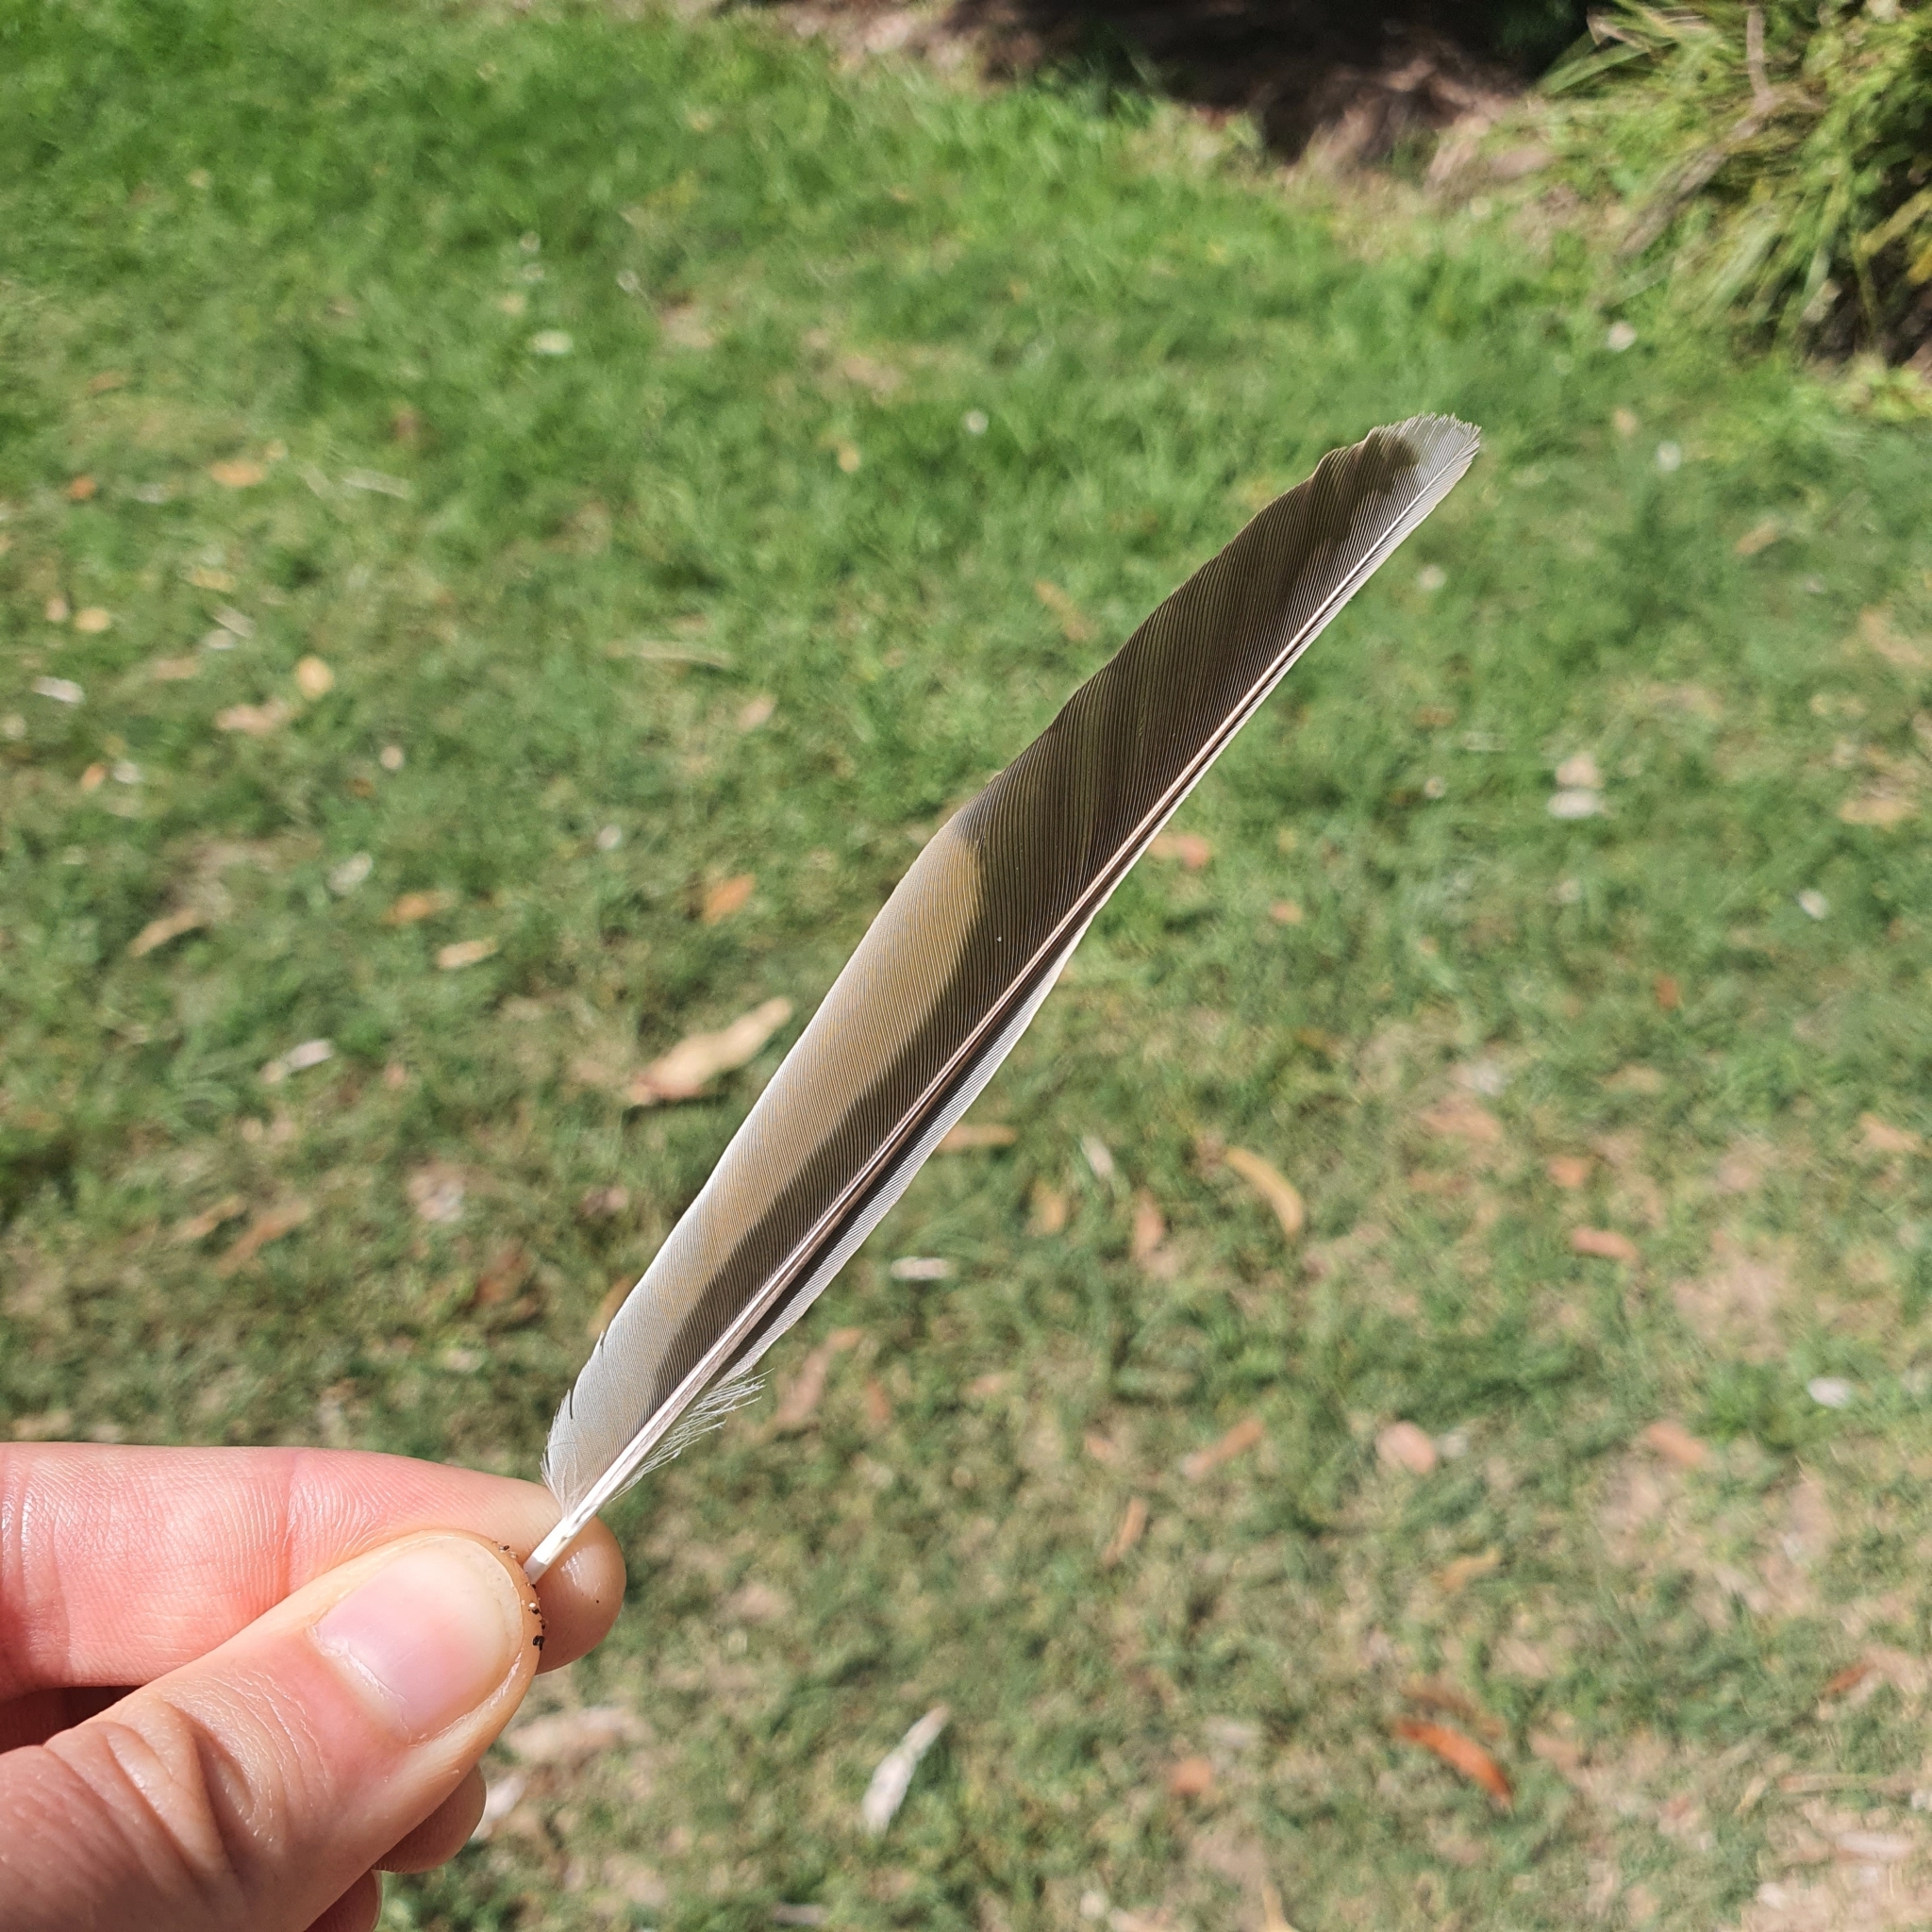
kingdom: Animalia
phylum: Chordata
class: Aves
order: Passeriformes
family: Meliphagidae
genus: Anthochaera
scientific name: Anthochaera carunculata
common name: Red wattlebird
